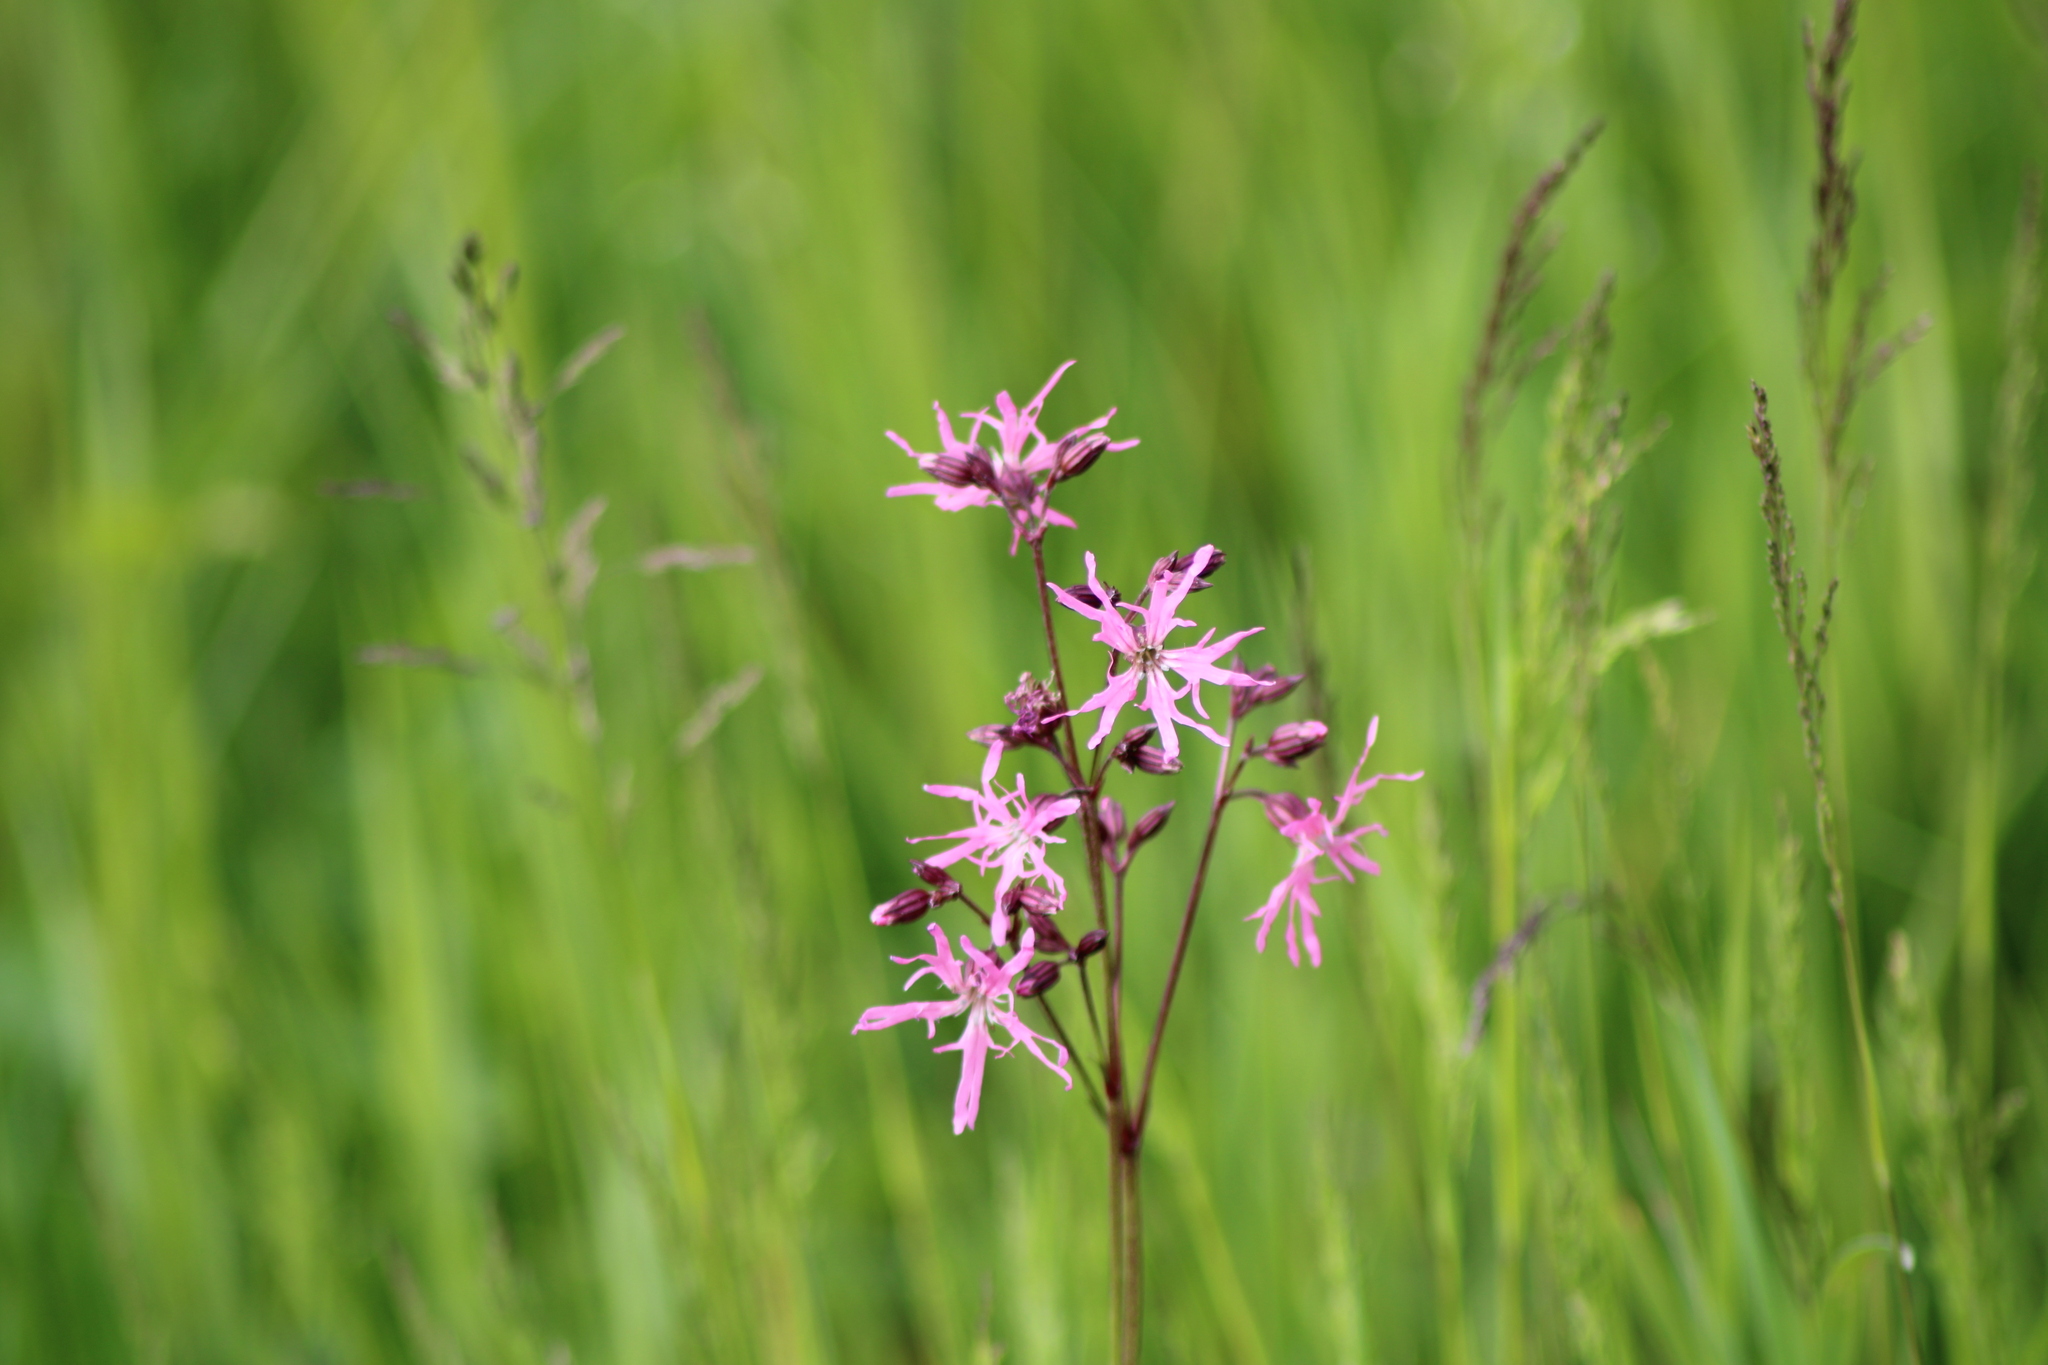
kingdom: Plantae
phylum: Tracheophyta
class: Magnoliopsida
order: Caryophyllales
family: Caryophyllaceae
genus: Silene
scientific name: Silene flos-cuculi
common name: Ragged-robin
